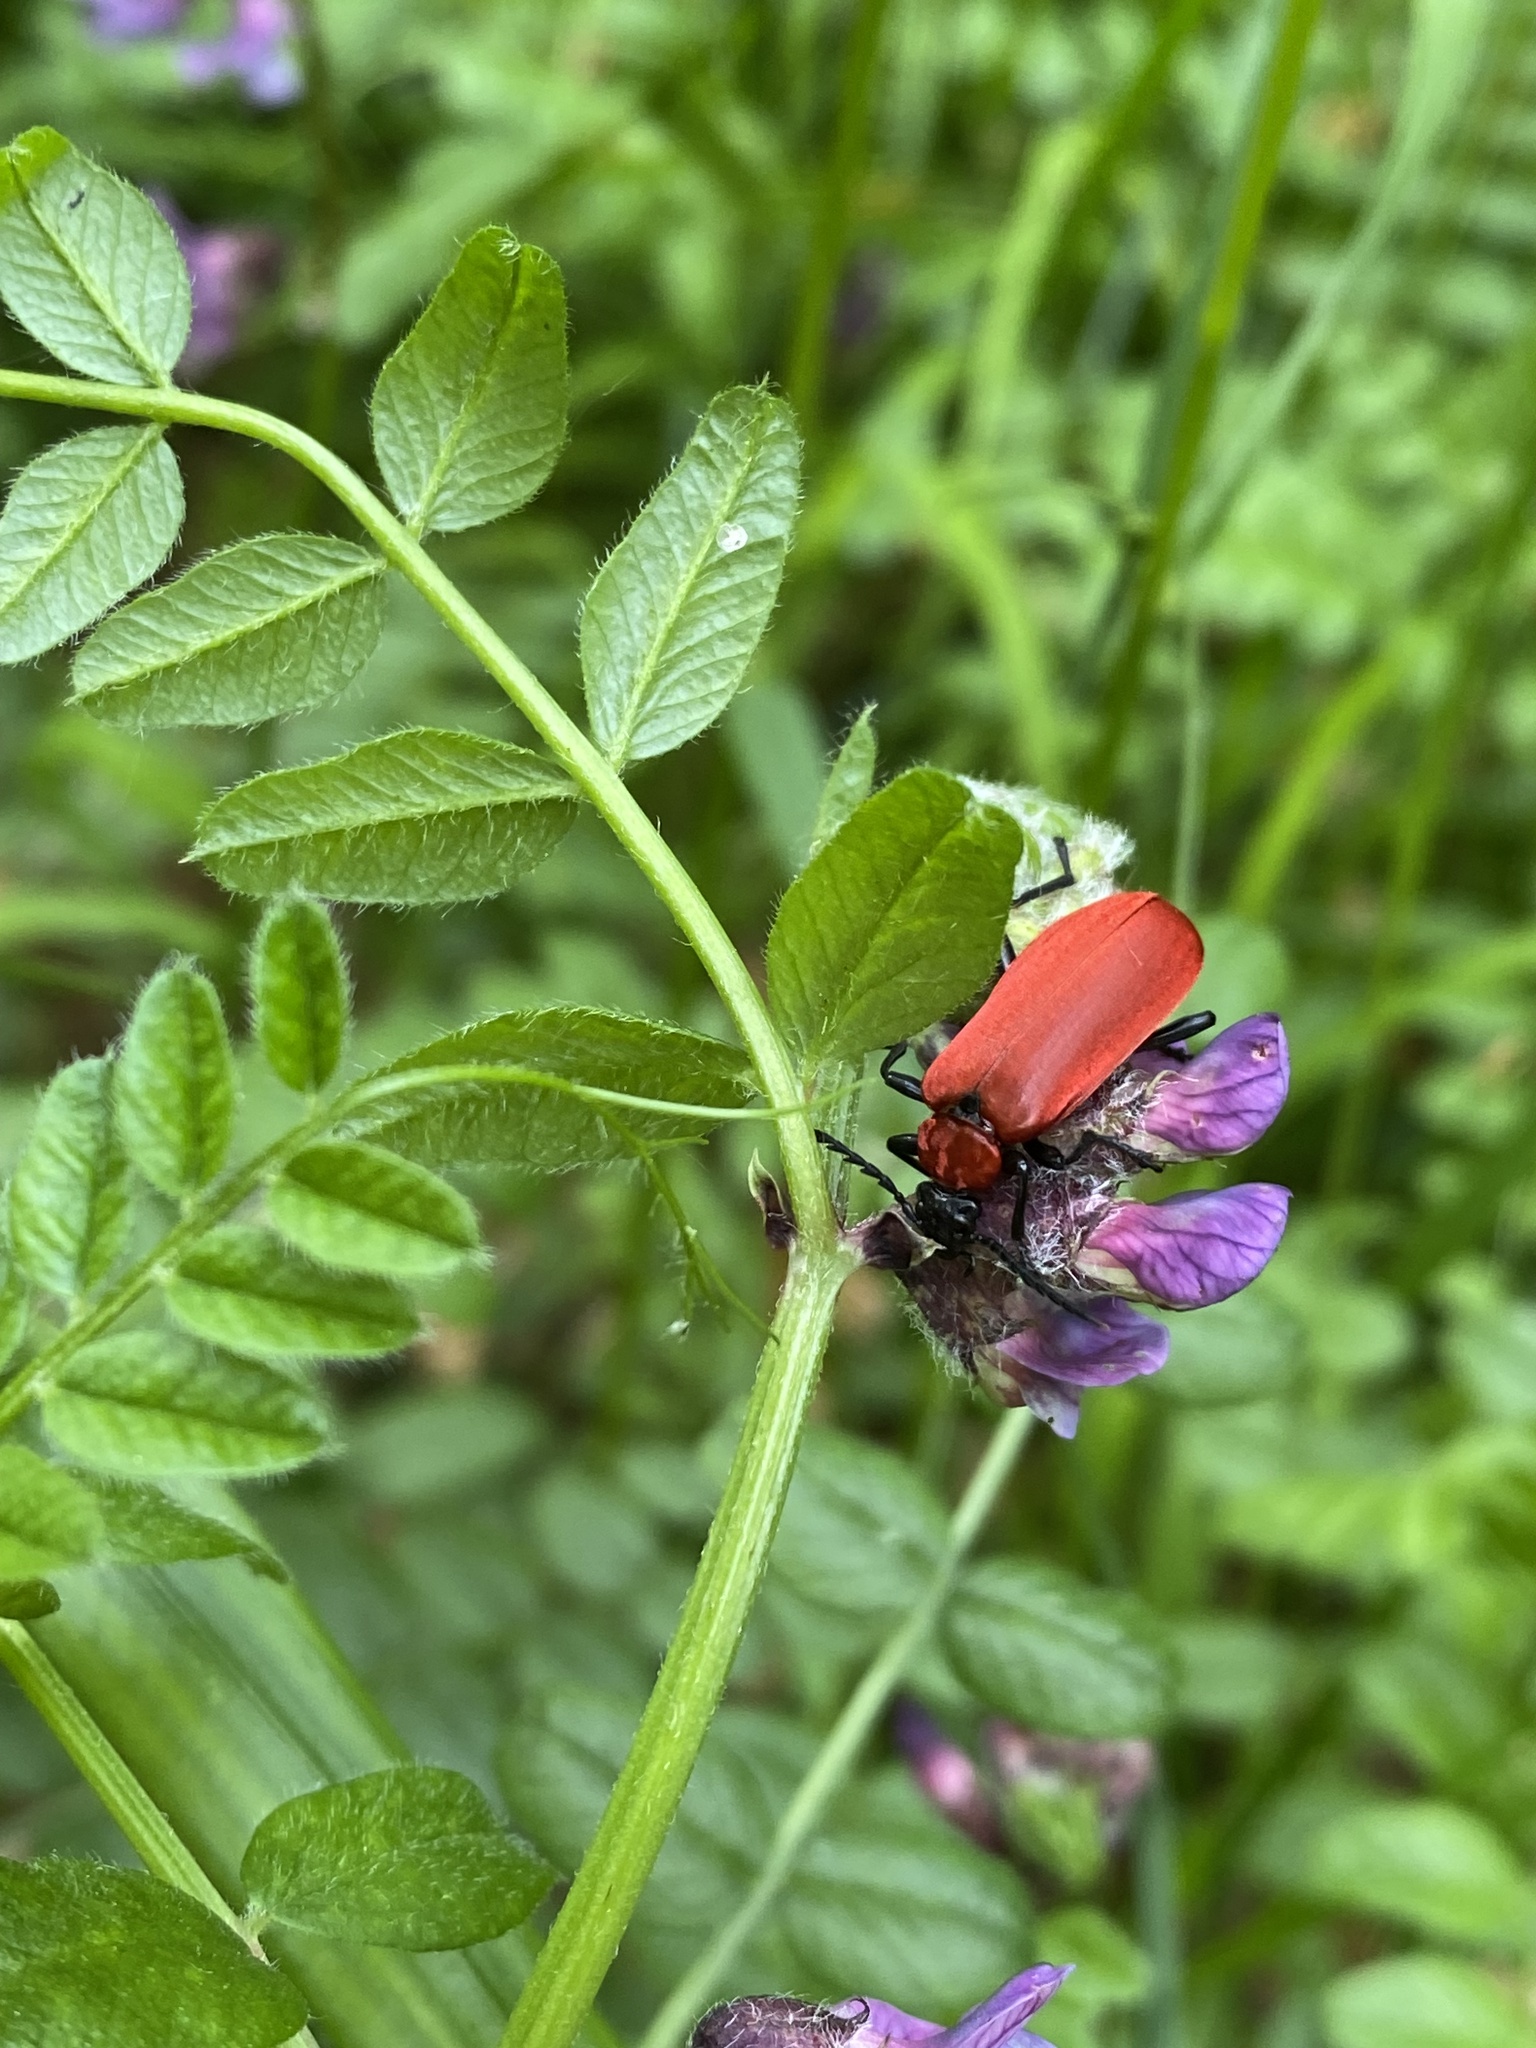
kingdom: Animalia
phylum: Arthropoda
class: Insecta
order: Coleoptera
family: Pyrochroidae
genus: Pyrochroa
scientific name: Pyrochroa coccinea
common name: Black-headed cardinal beetle
